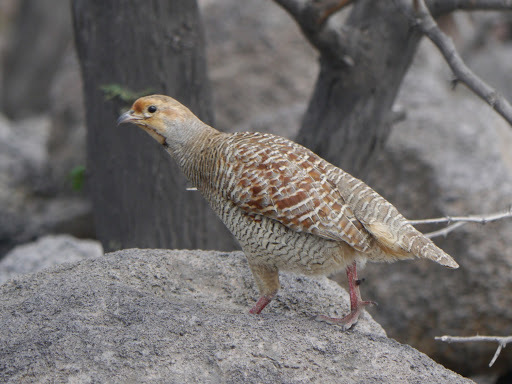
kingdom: Animalia
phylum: Chordata
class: Aves
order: Galliformes
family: Phasianidae
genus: Ortygornis
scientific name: Ortygornis pondicerianus
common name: Grey francolin
